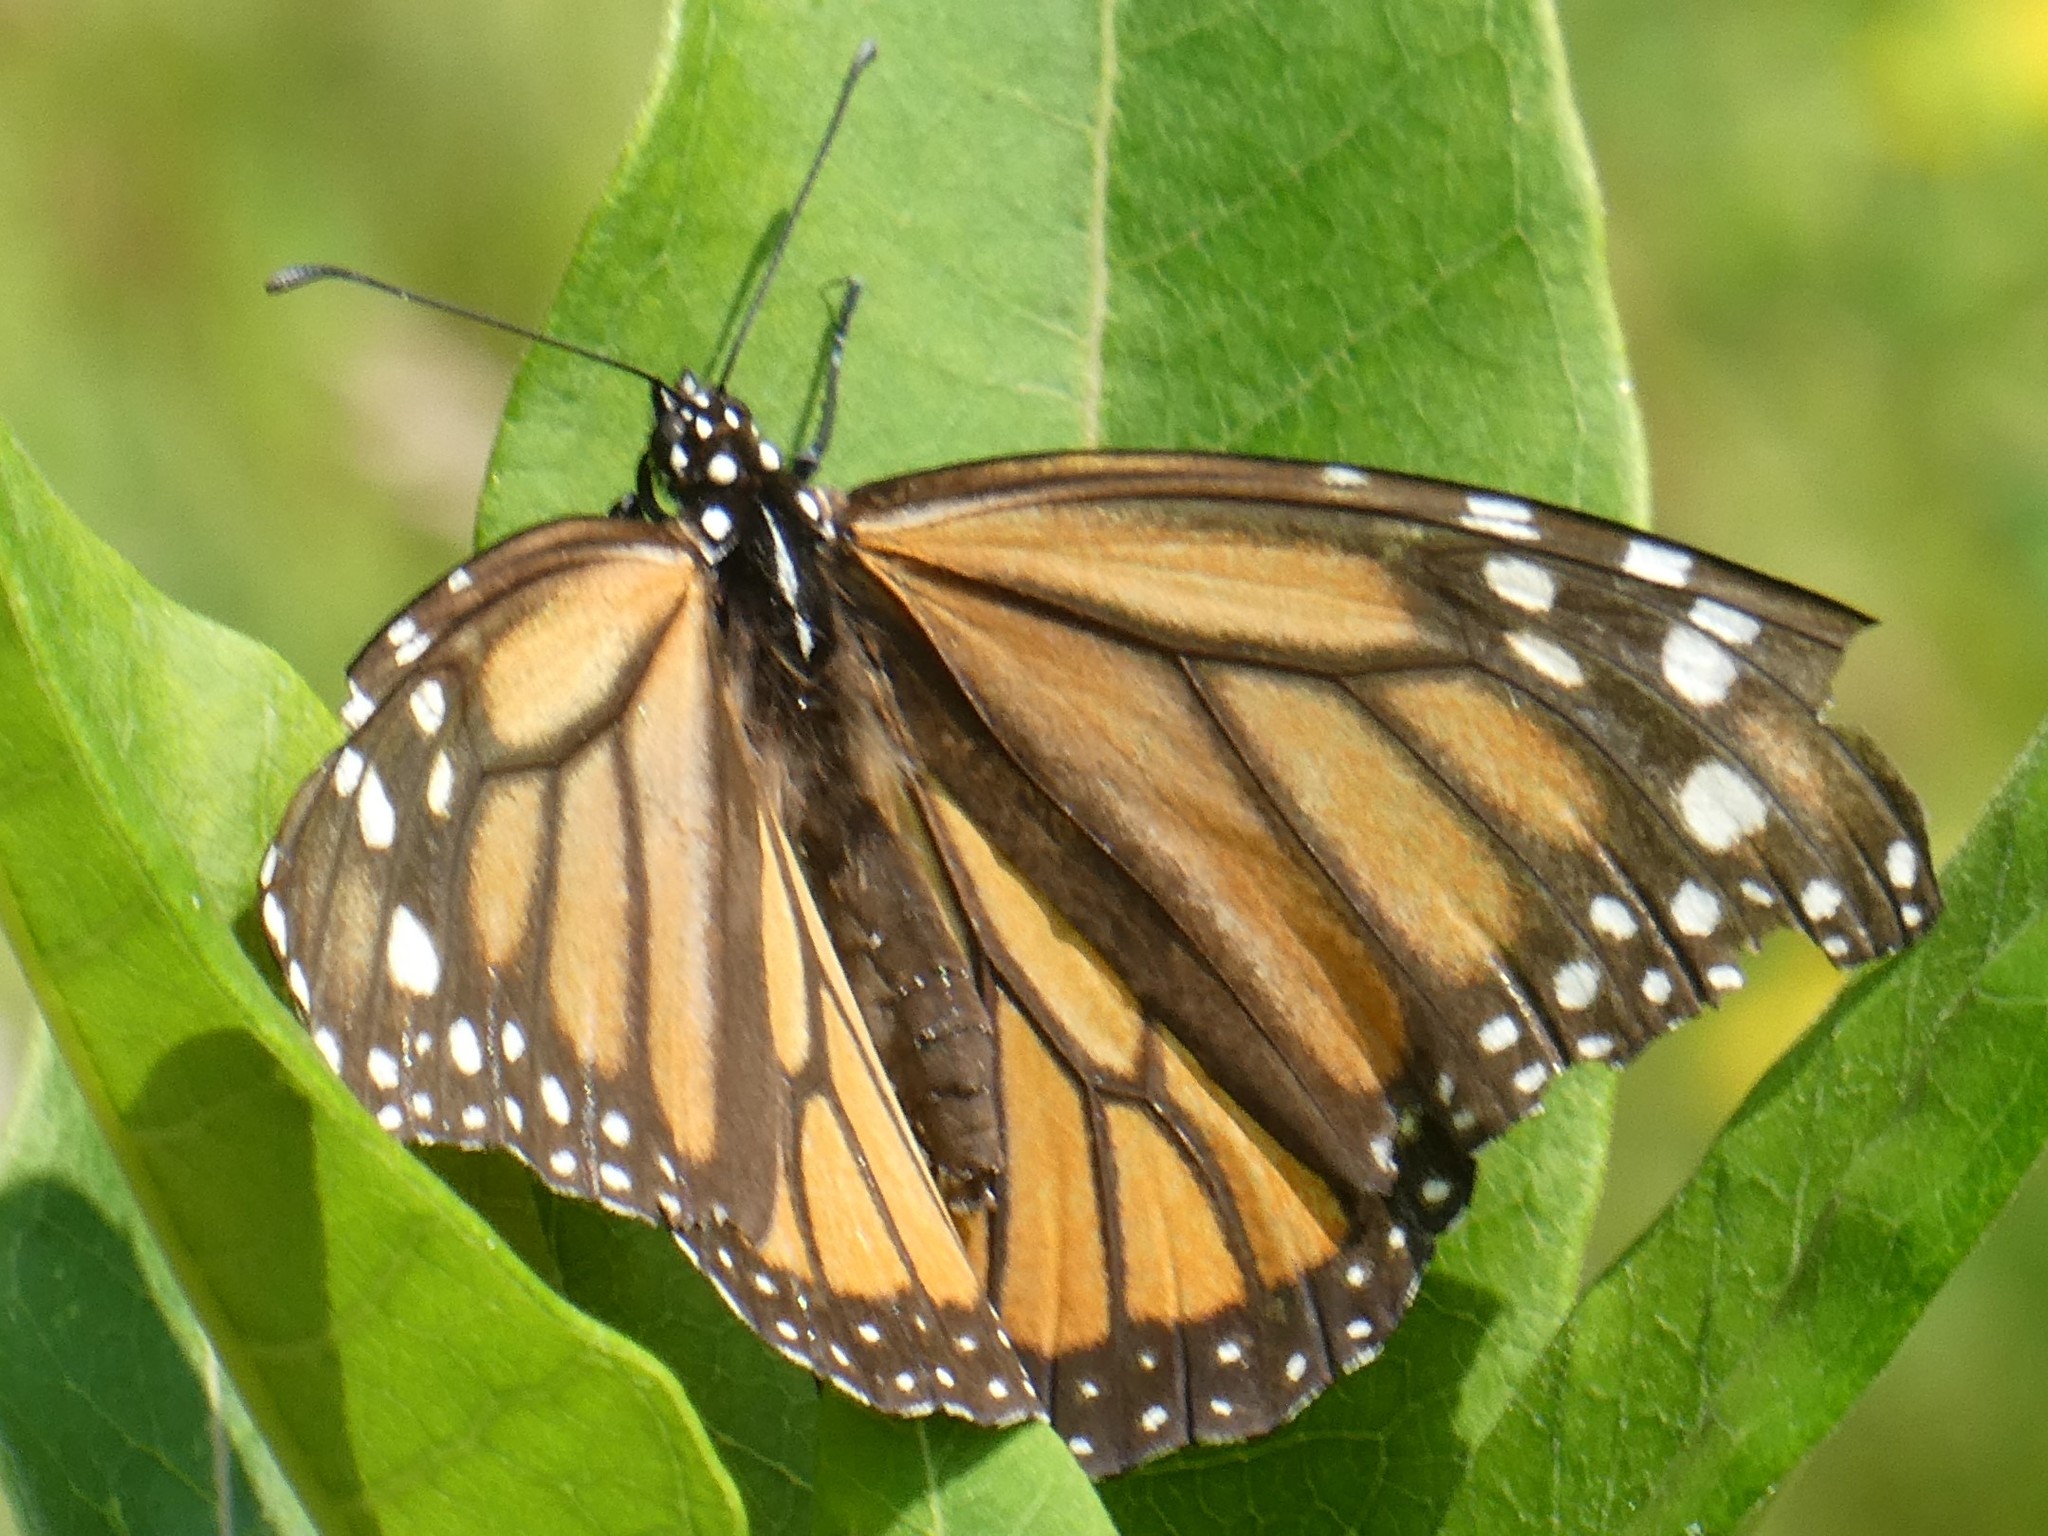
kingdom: Animalia
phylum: Arthropoda
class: Insecta
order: Lepidoptera
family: Nymphalidae
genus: Danaus
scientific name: Danaus plexippus
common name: Monarch
